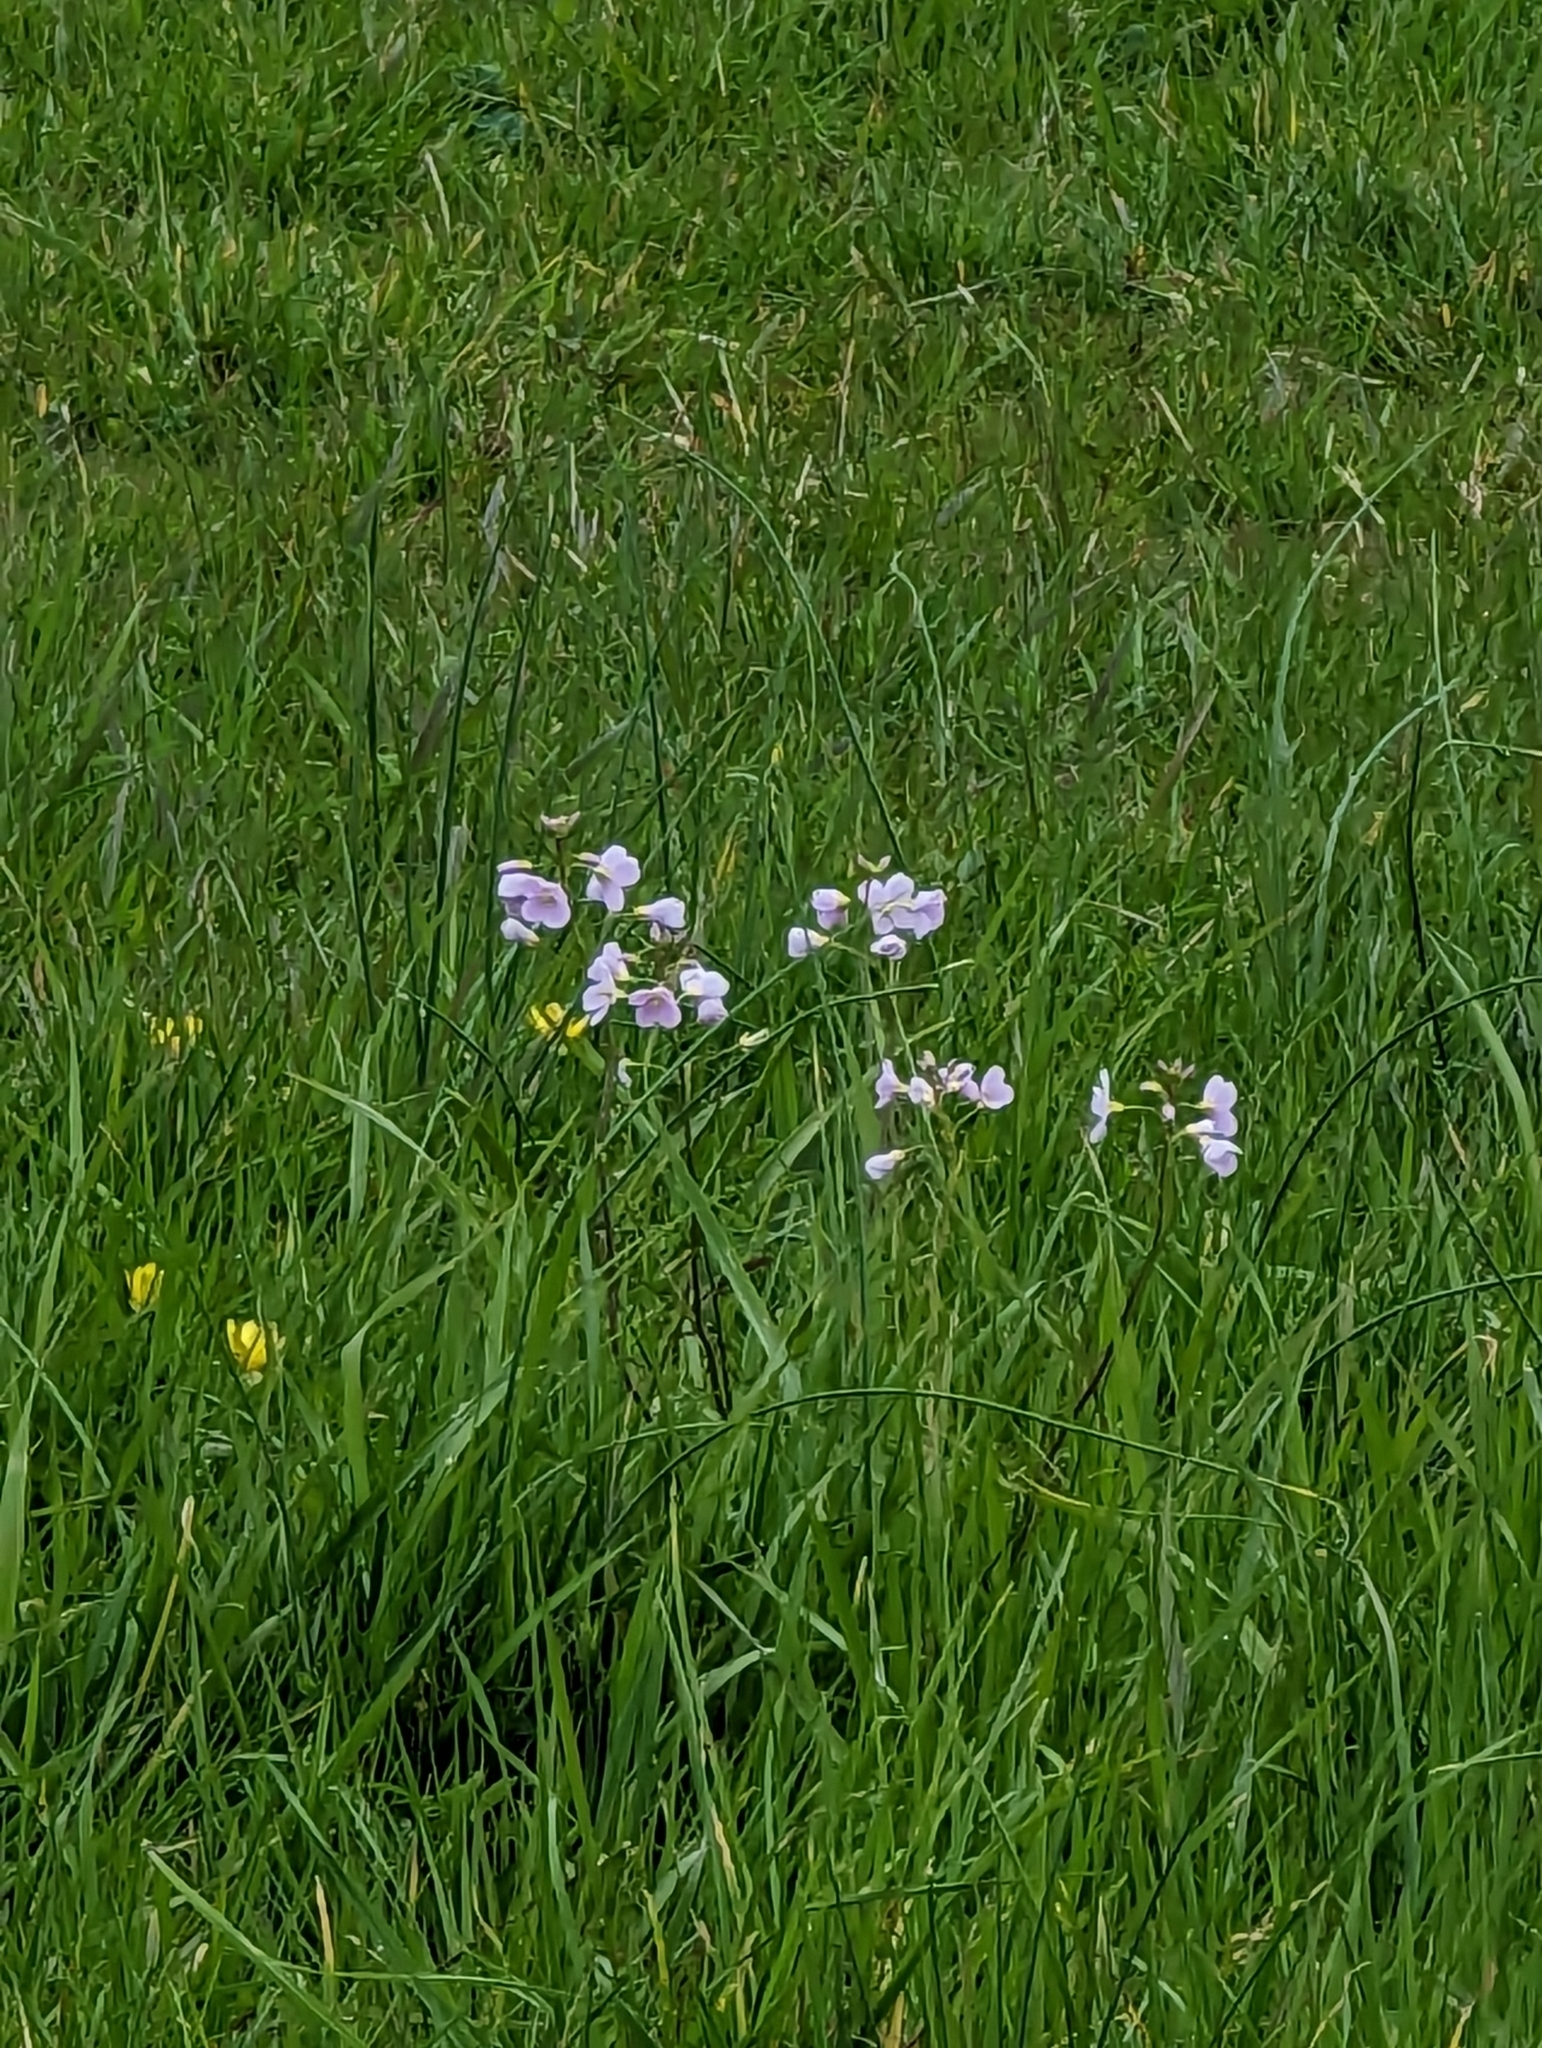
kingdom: Plantae
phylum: Tracheophyta
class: Magnoliopsida
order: Brassicales
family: Brassicaceae
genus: Cardamine
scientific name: Cardamine pratensis
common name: Cuckoo flower
